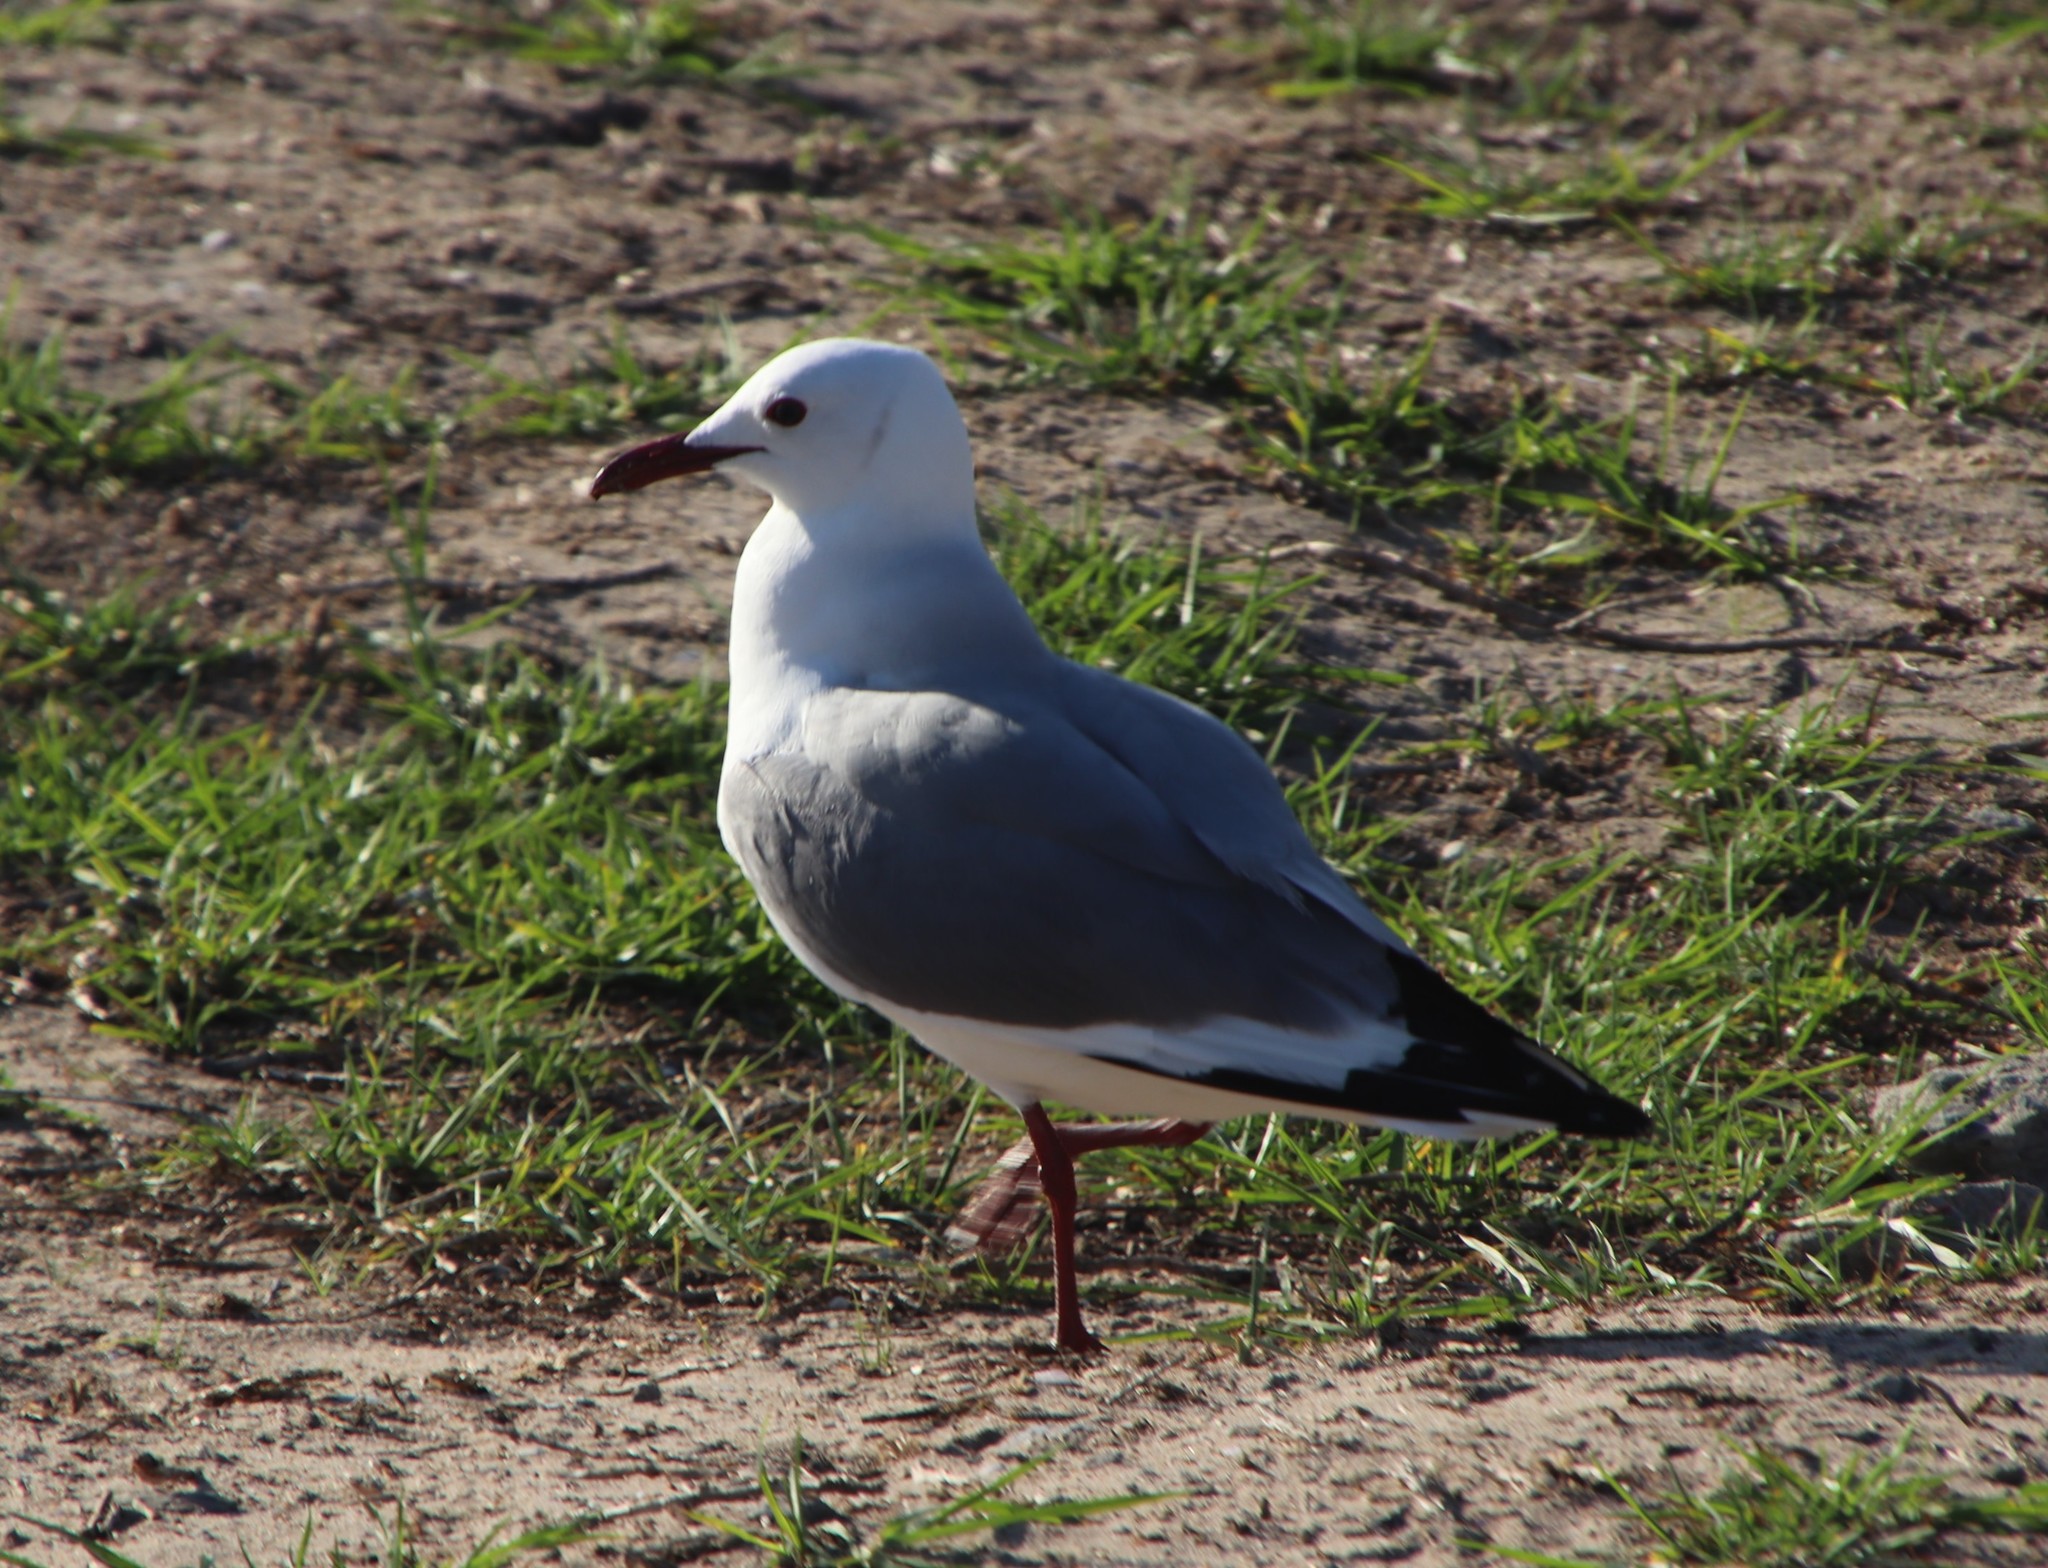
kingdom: Animalia
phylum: Chordata
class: Aves
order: Charadriiformes
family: Laridae
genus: Chroicocephalus
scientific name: Chroicocephalus hartlaubii
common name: Hartlaub's gull
